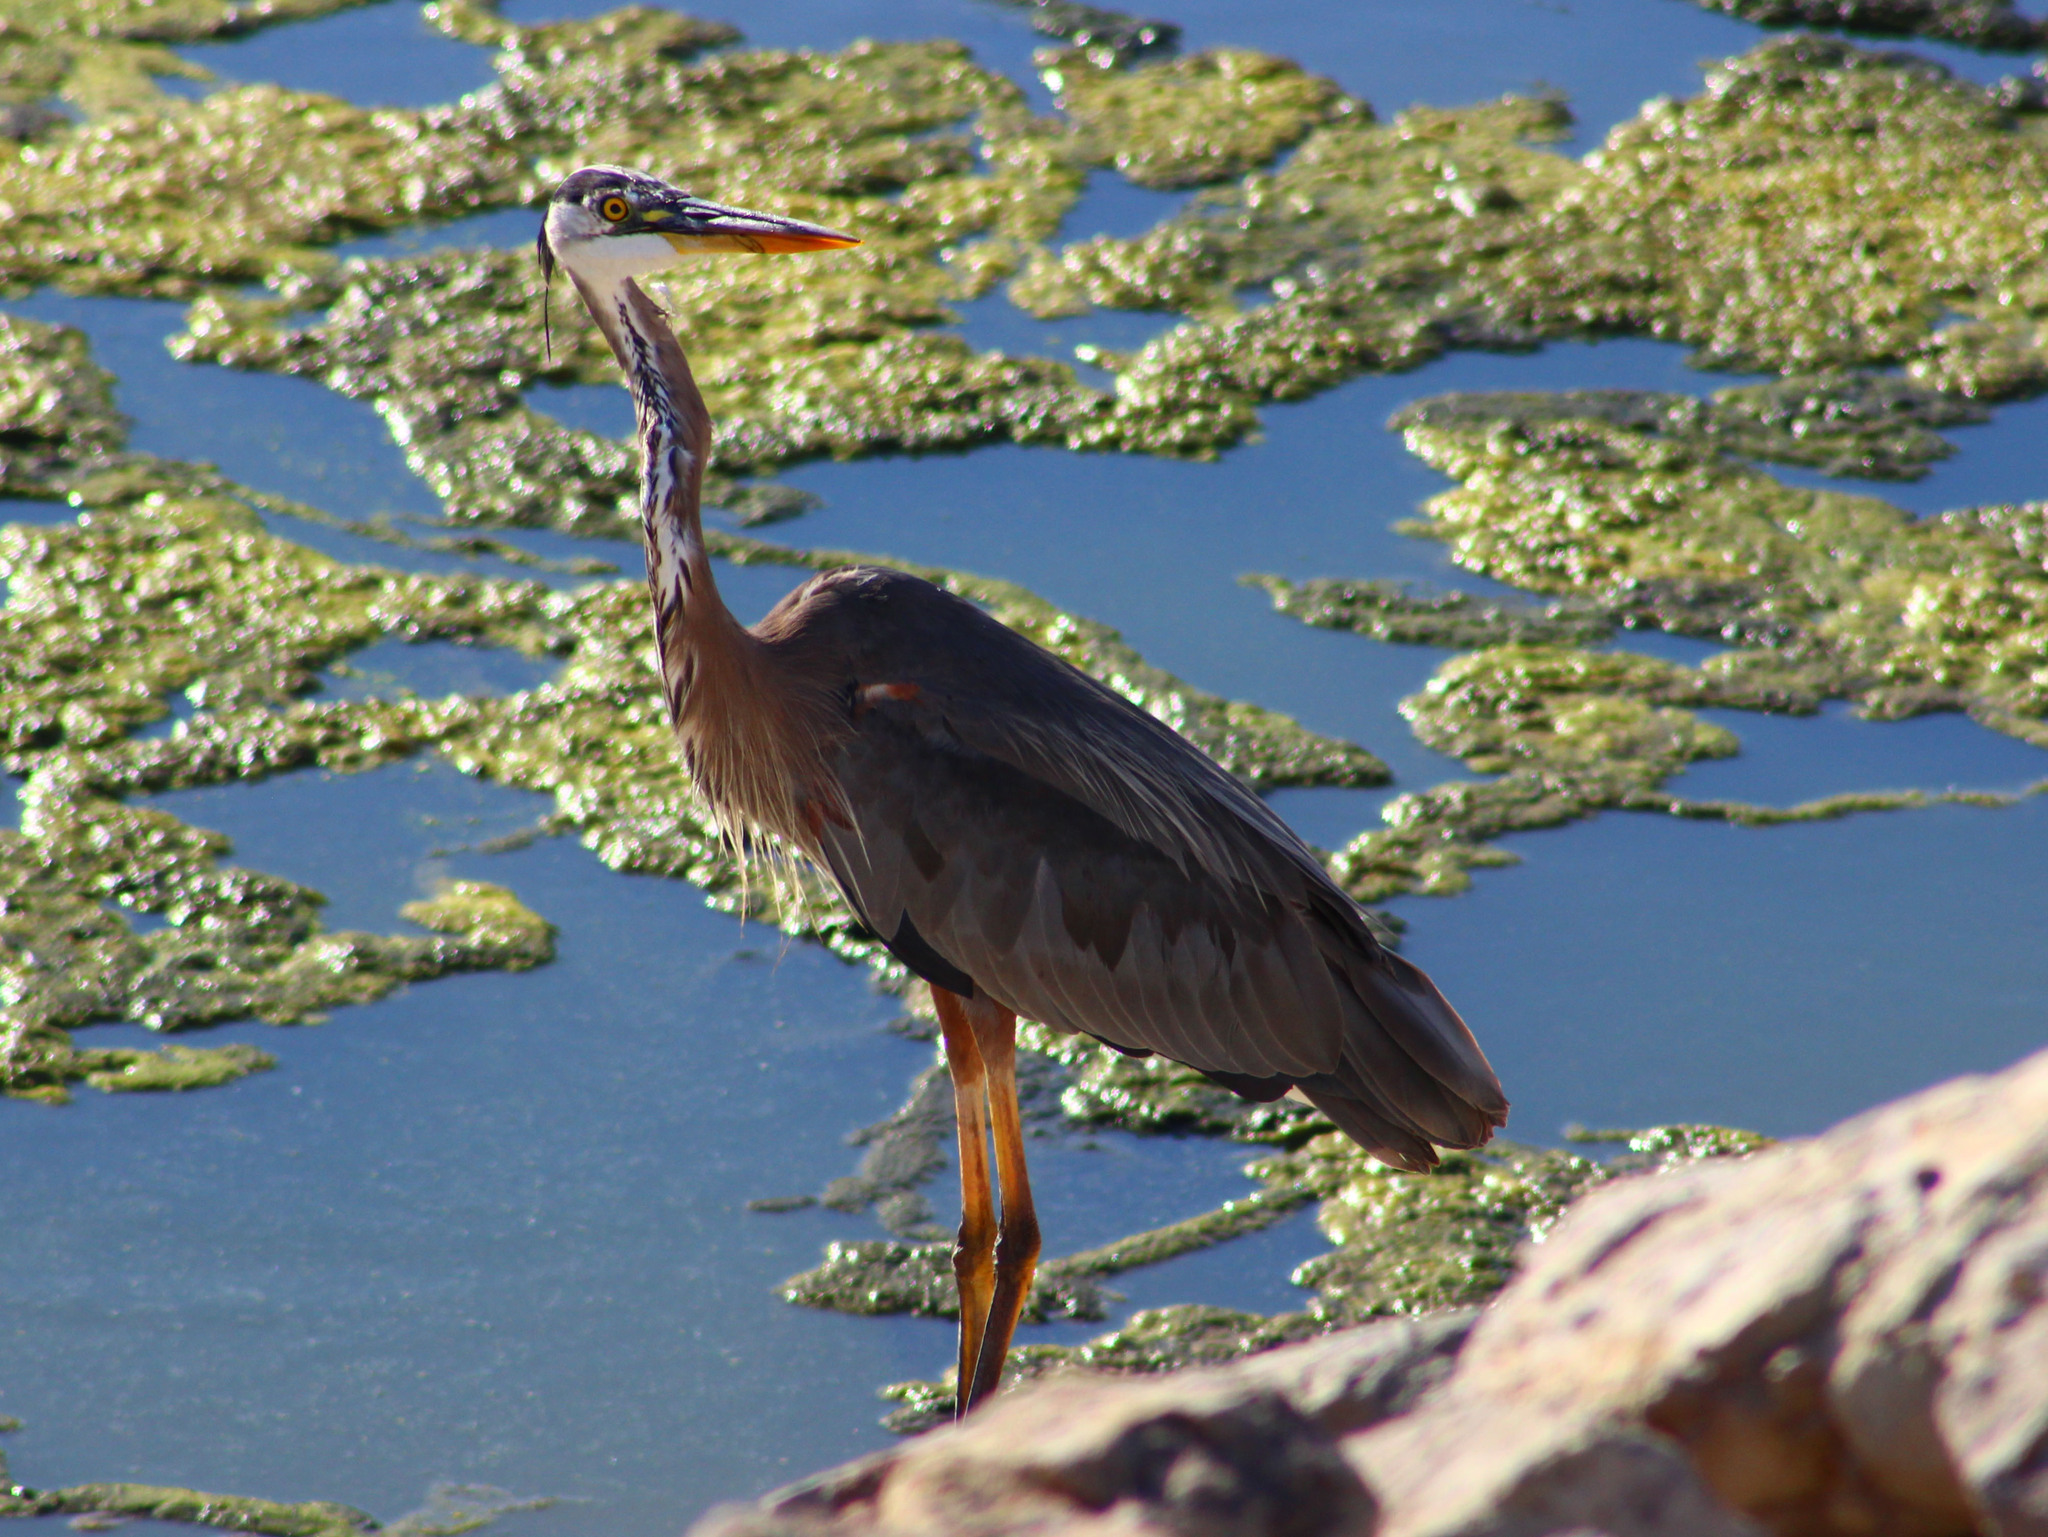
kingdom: Animalia
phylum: Chordata
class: Aves
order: Pelecaniformes
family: Ardeidae
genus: Ardea
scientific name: Ardea herodias
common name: Great blue heron
